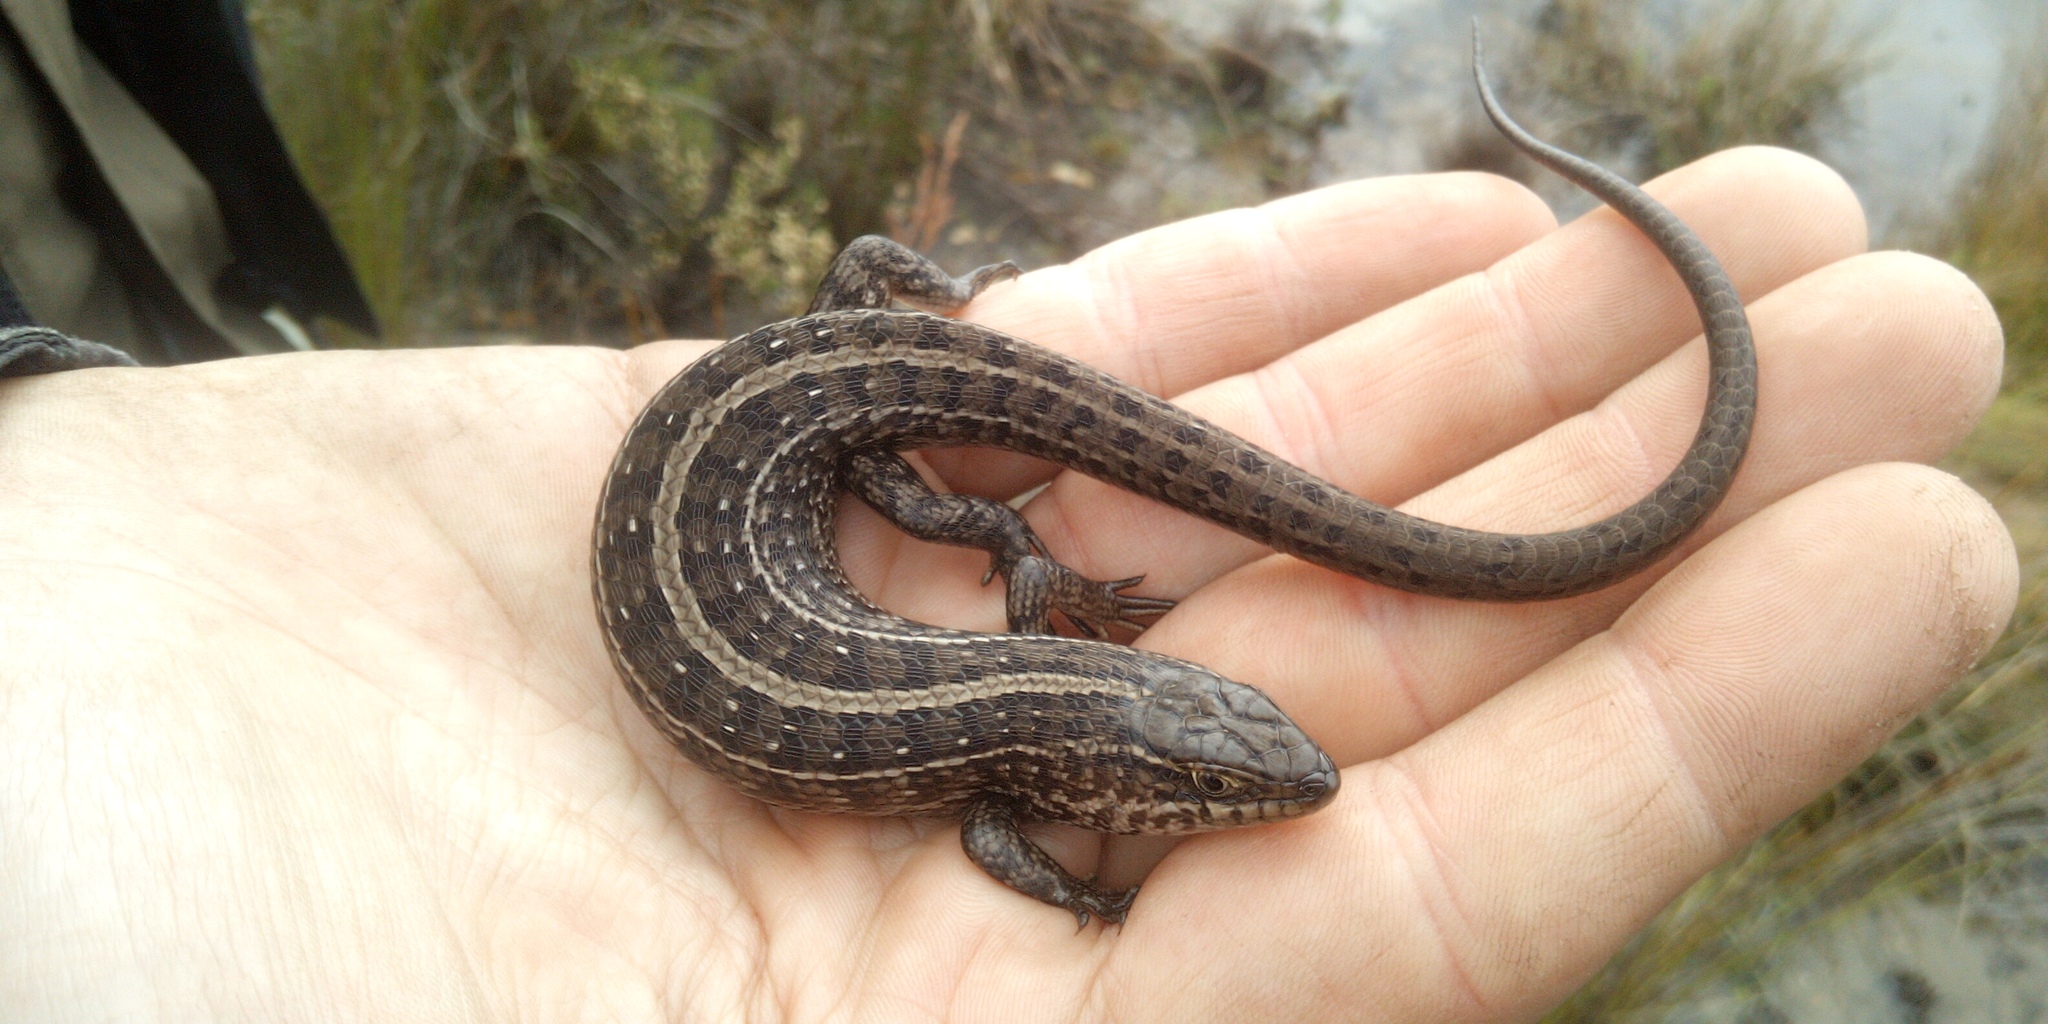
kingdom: Animalia
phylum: Chordata
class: Squamata
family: Scincidae
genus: Trachylepis
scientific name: Trachylepis capensis
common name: Cape skink
